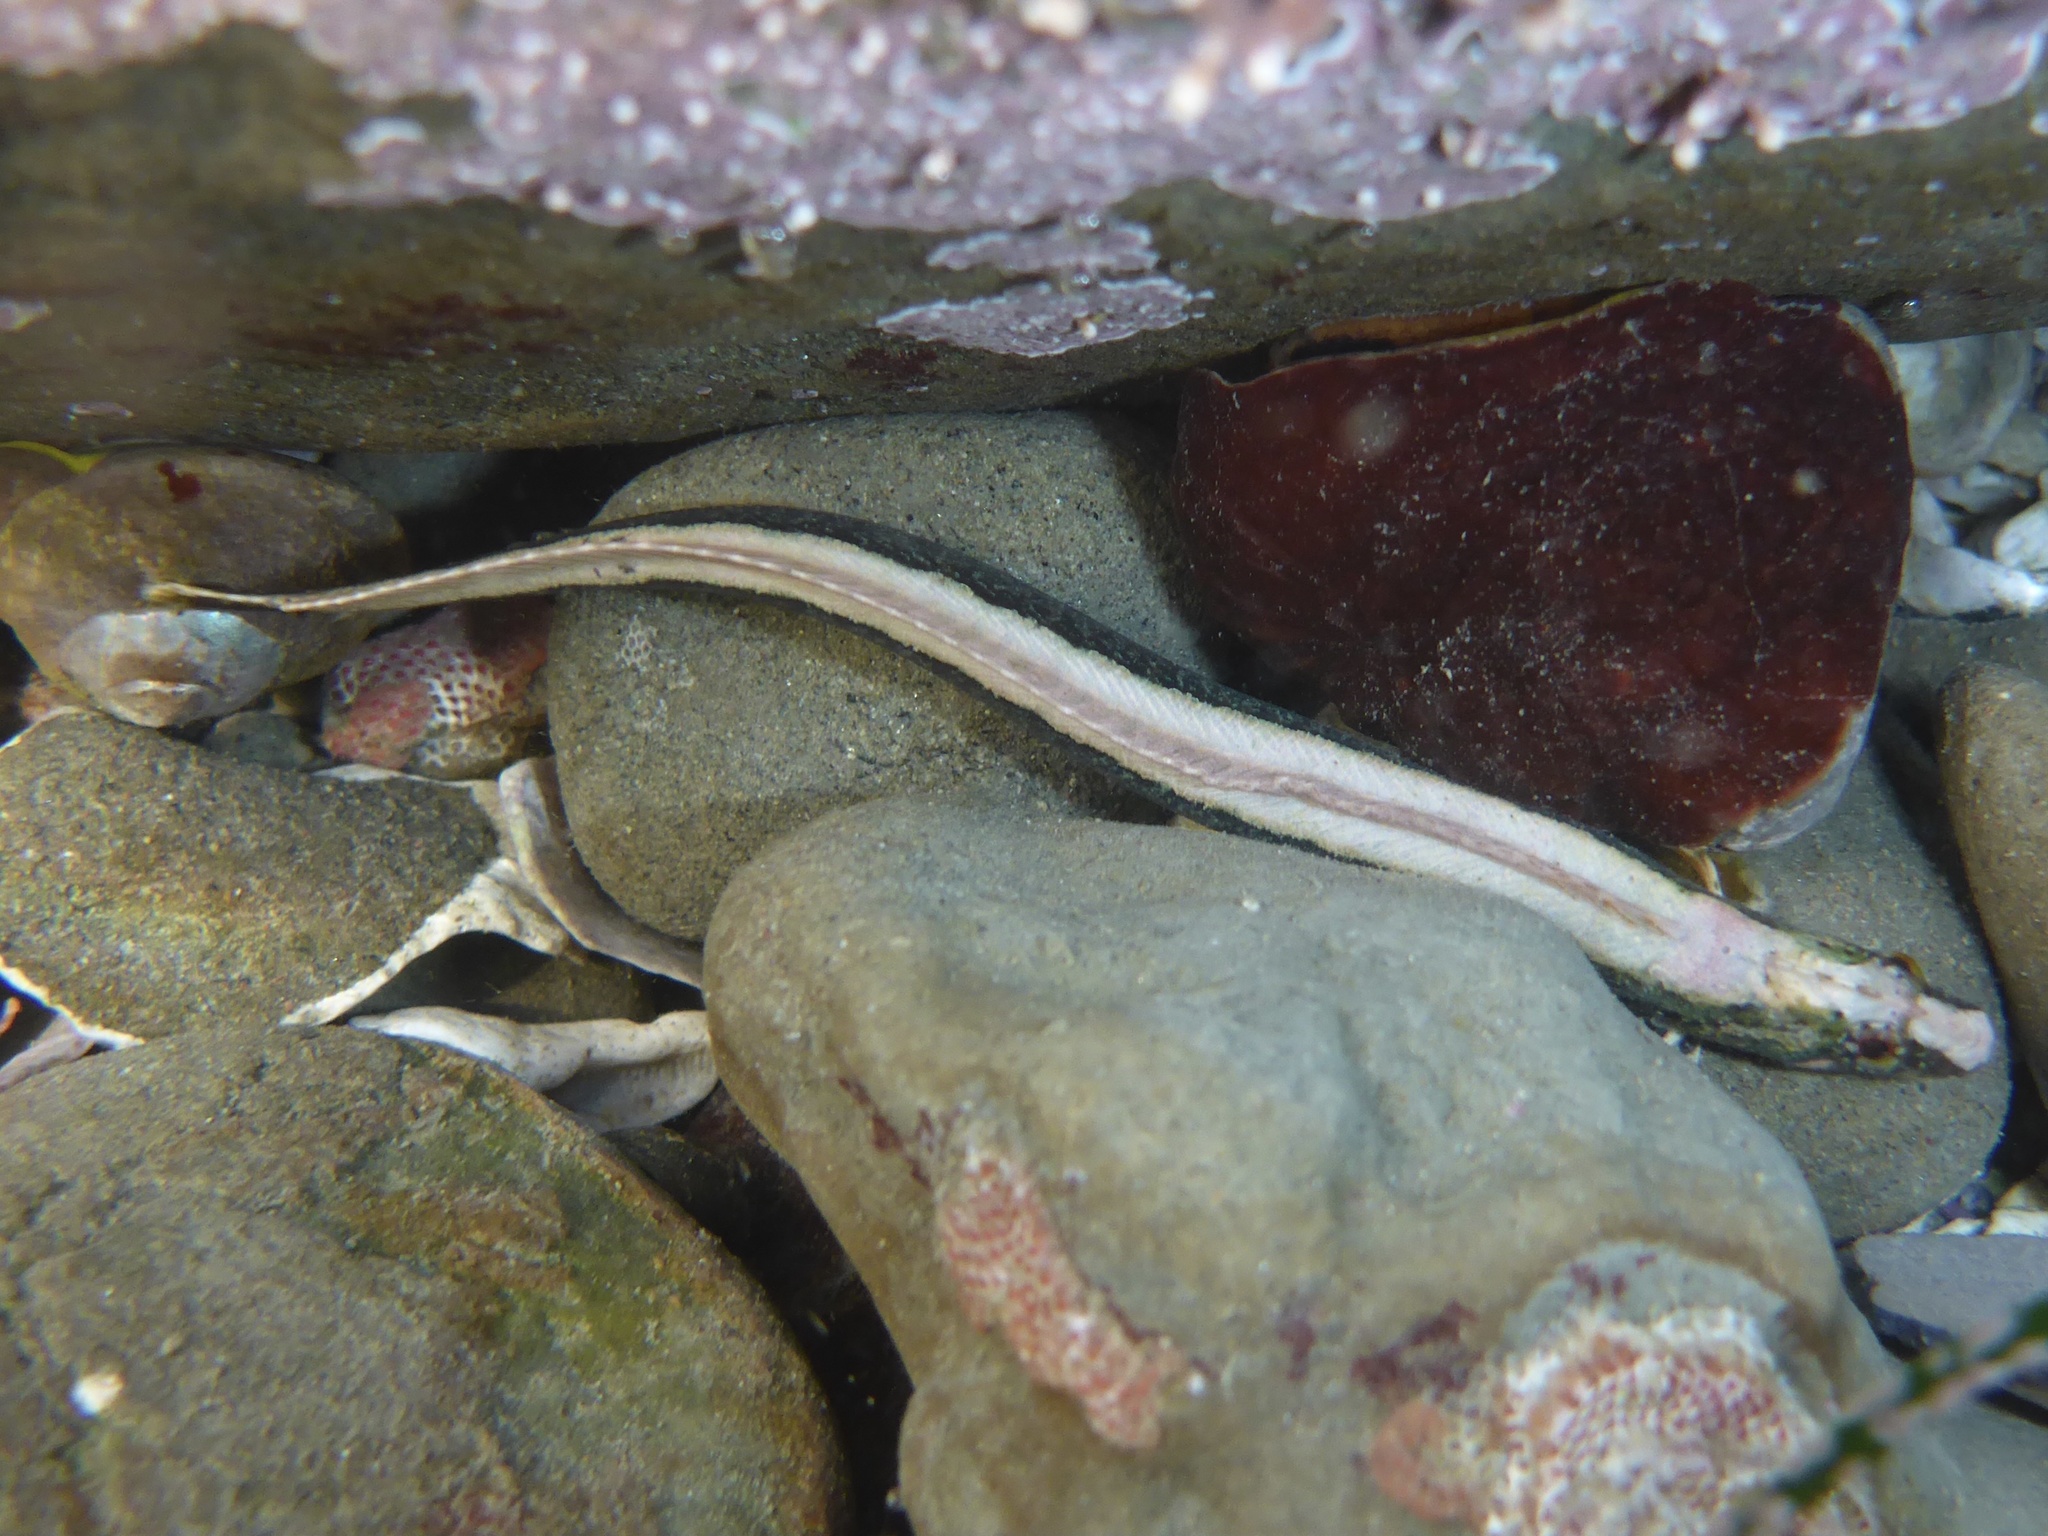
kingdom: Animalia
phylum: Chordata
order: Perciformes
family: Stichaeidae
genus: Anoplarchus
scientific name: Anoplarchus purpurescens
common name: High cockscomb
